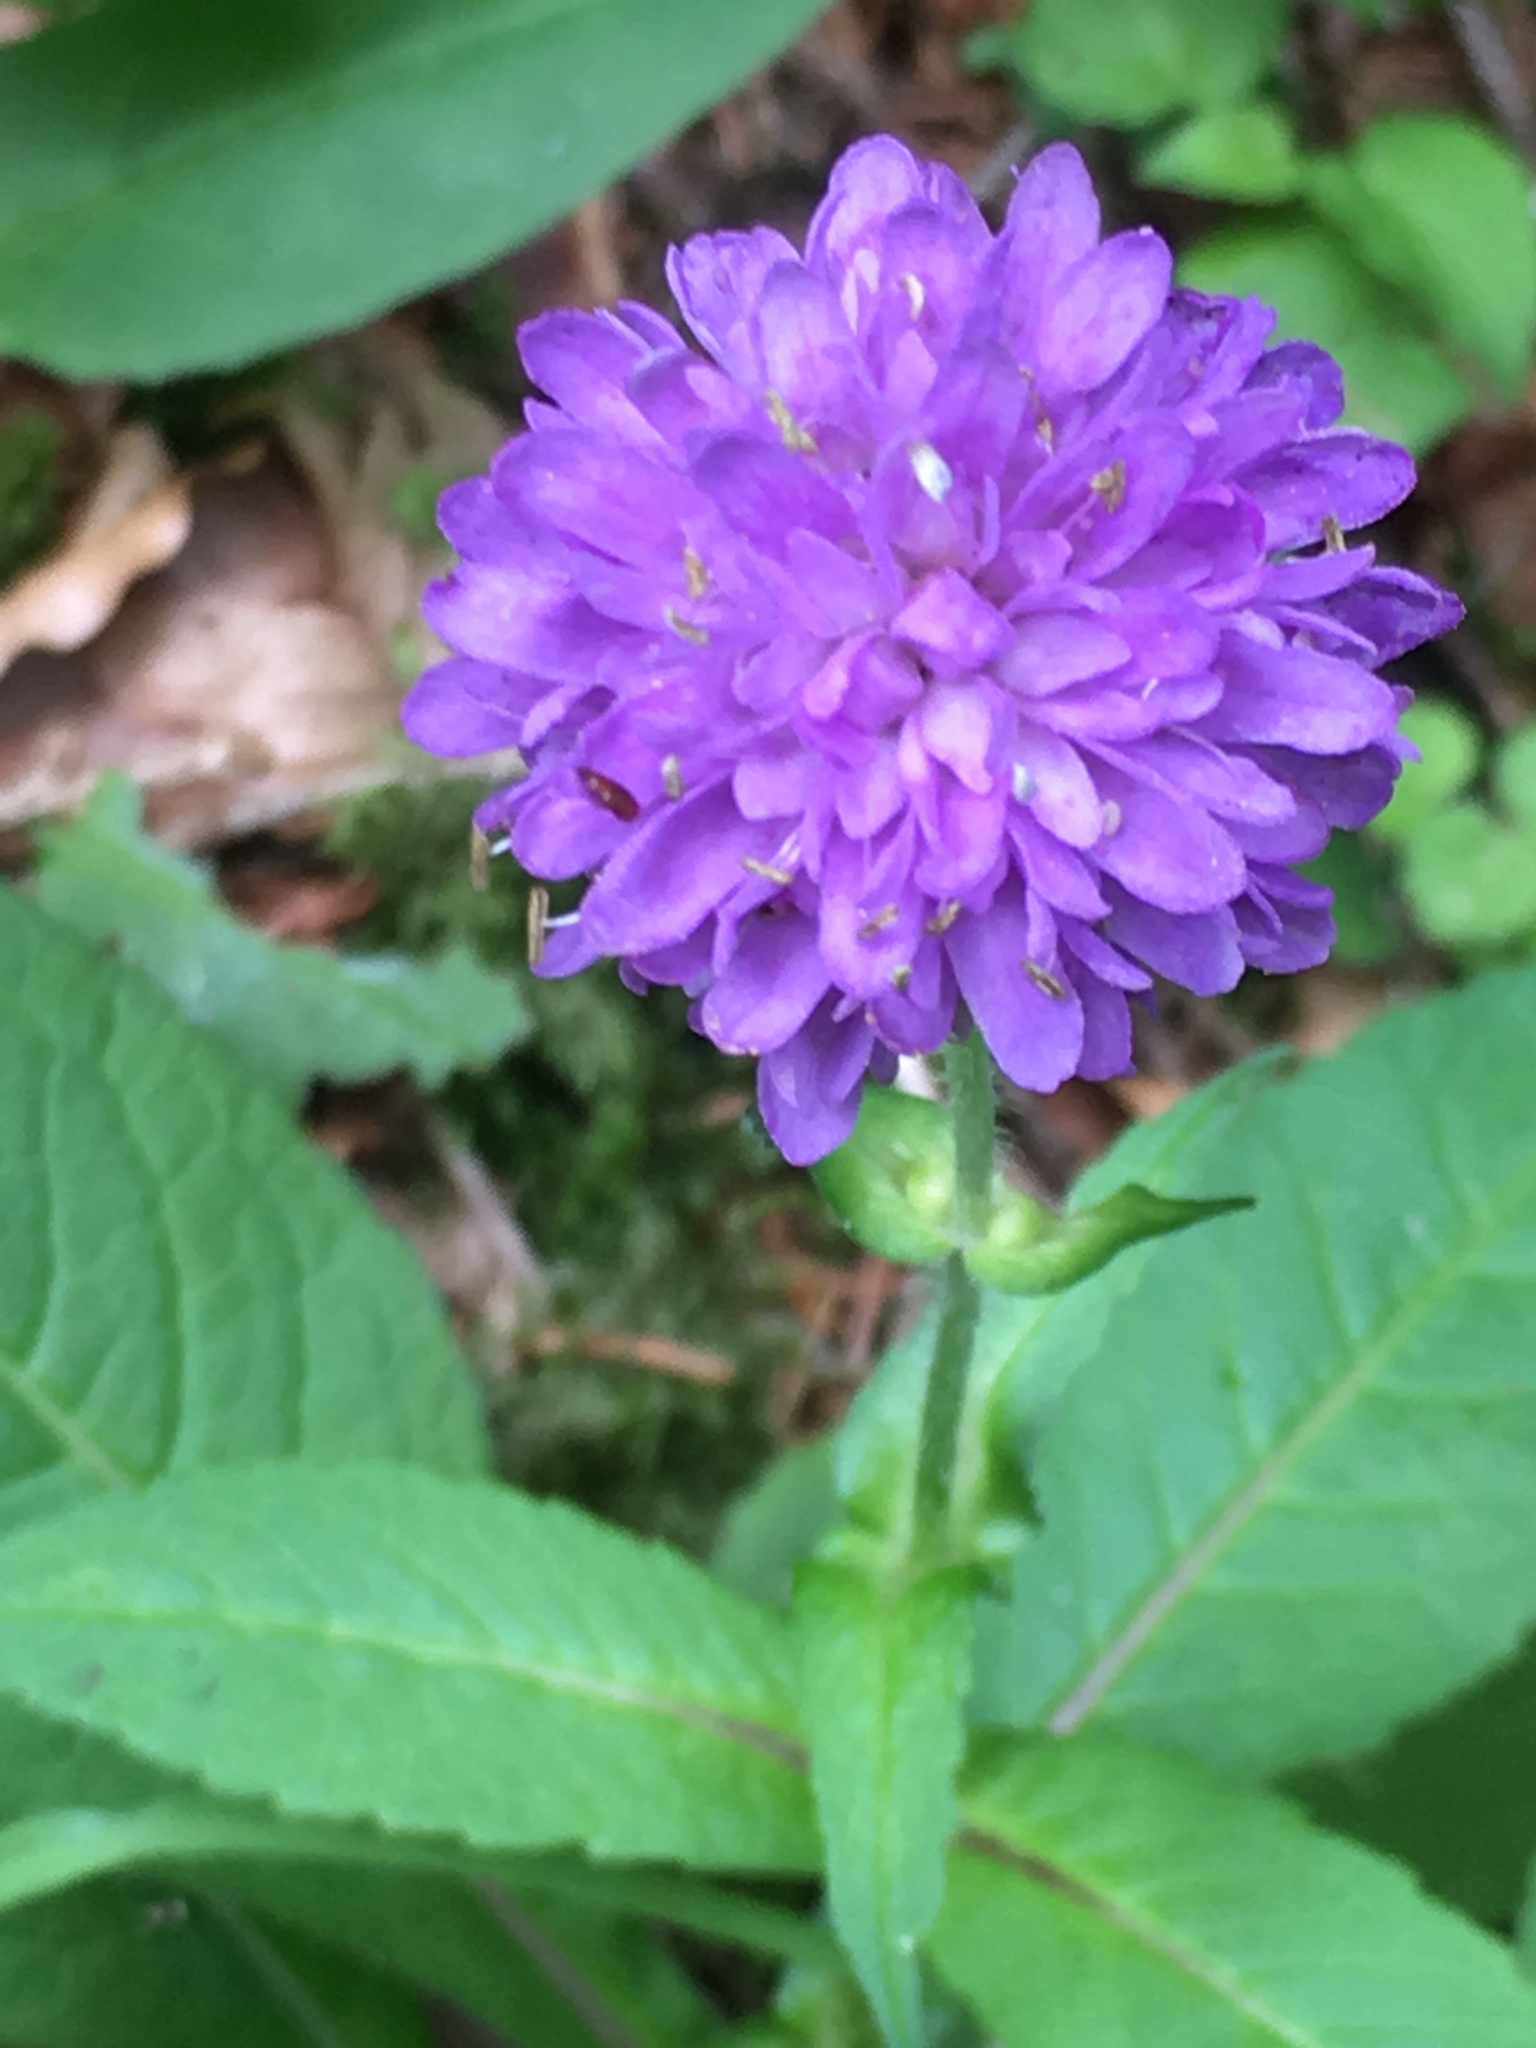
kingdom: Plantae
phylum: Tracheophyta
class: Magnoliopsida
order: Dipsacales
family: Caprifoliaceae
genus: Knautia
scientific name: Knautia dipsacifolia
